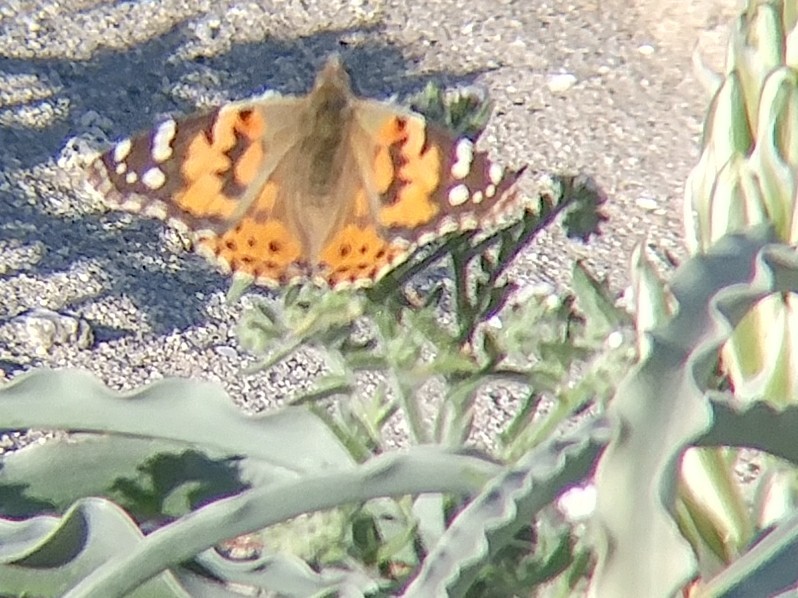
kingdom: Animalia
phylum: Arthropoda
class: Insecta
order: Lepidoptera
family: Nymphalidae
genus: Vanessa
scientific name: Vanessa cardui
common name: Painted lady
